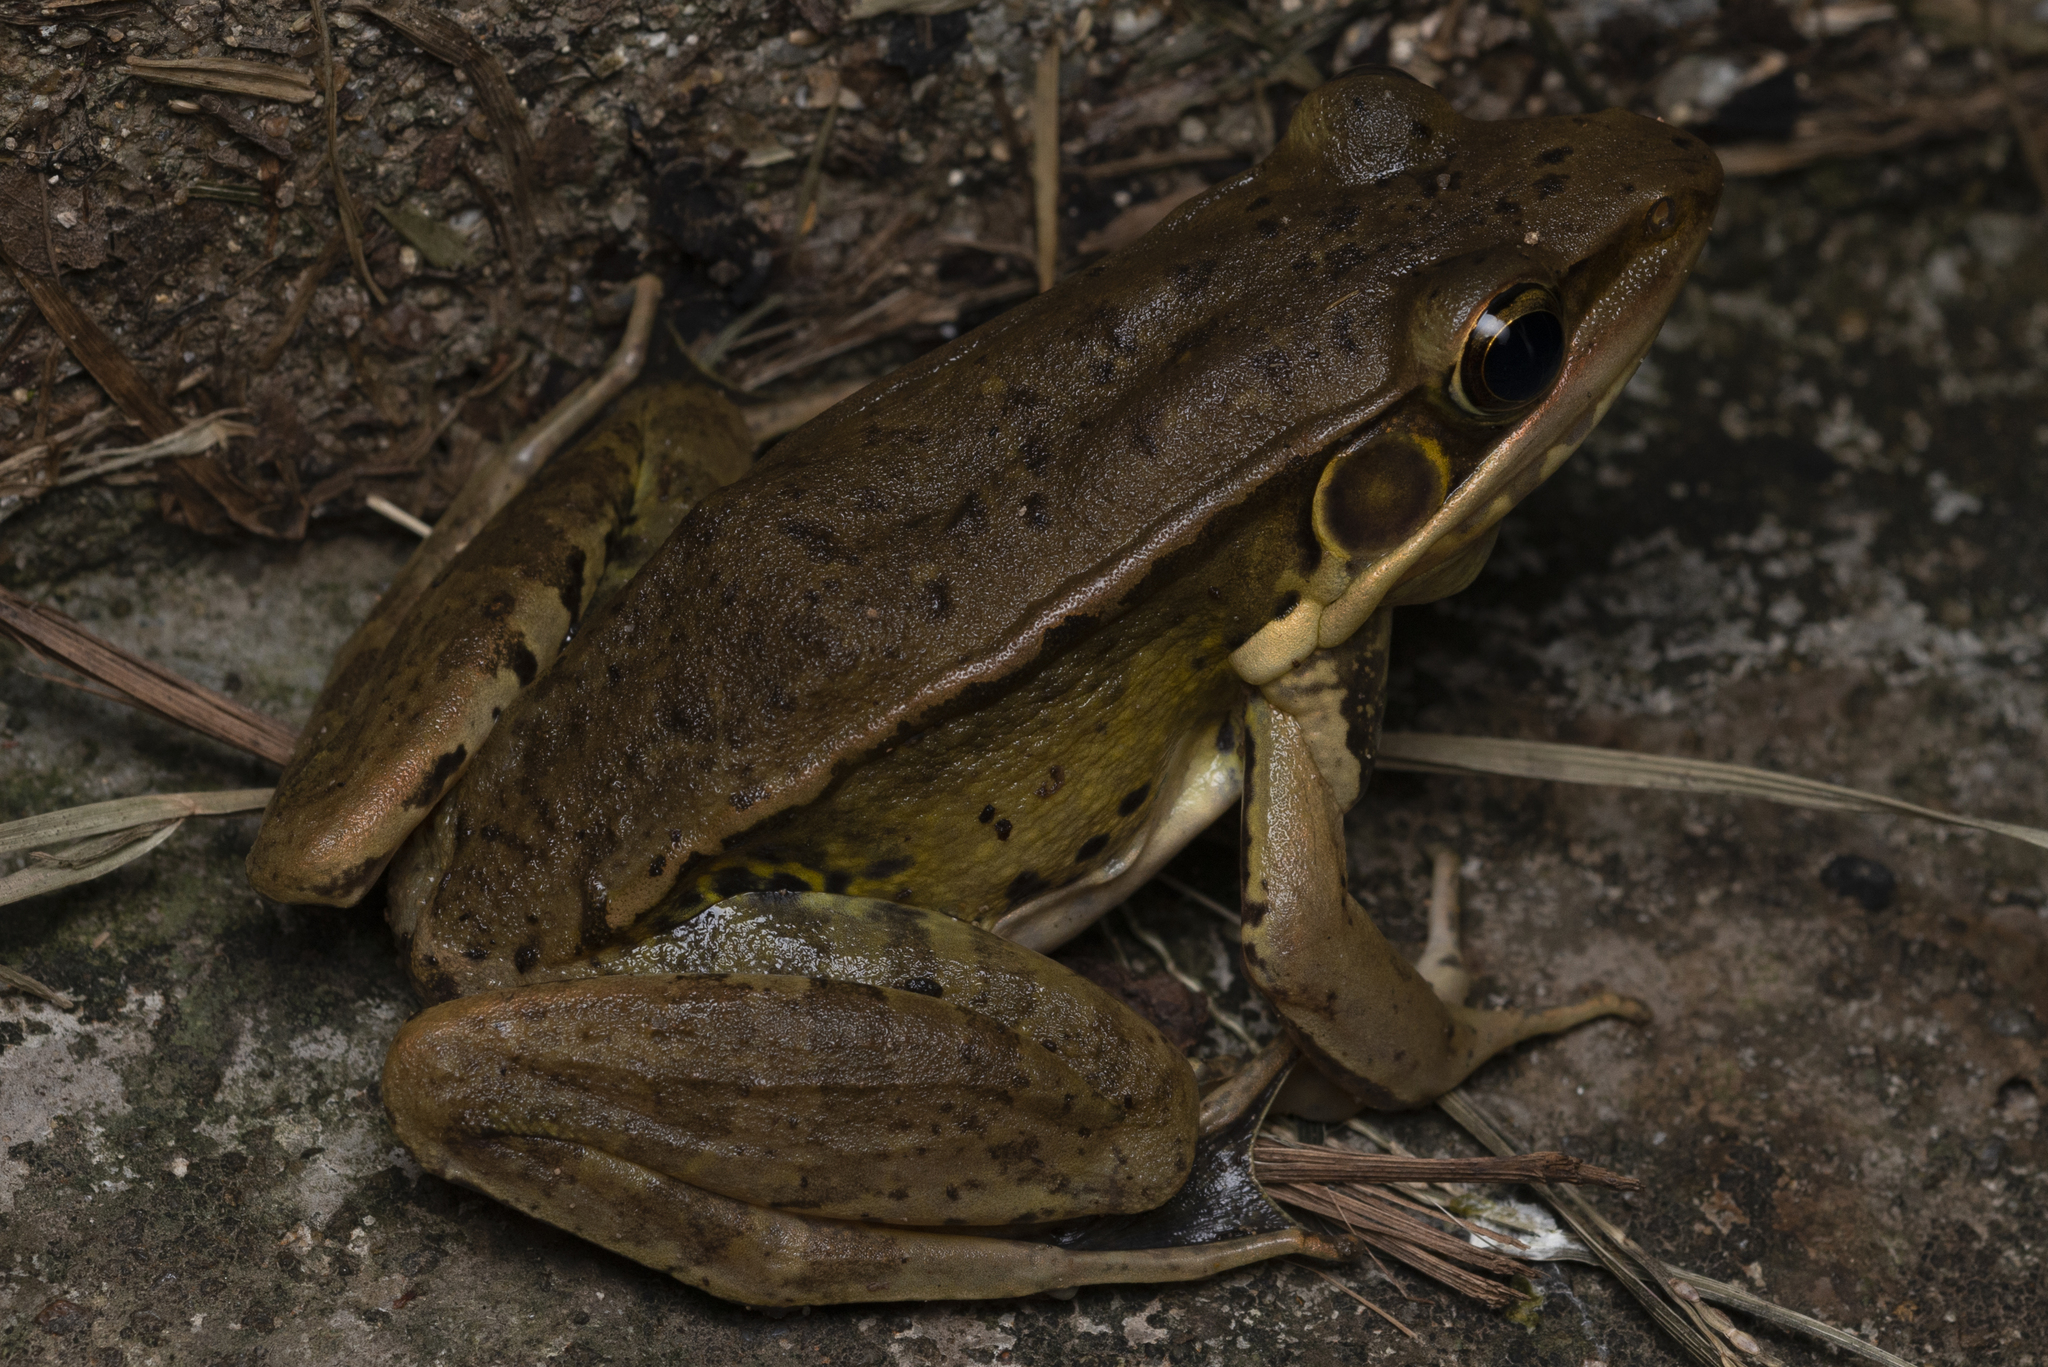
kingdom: Animalia
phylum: Chordata
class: Amphibia
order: Anura
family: Ranidae
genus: Sylvirana
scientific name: Sylvirana guentheri
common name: Guenther's amoy frog
